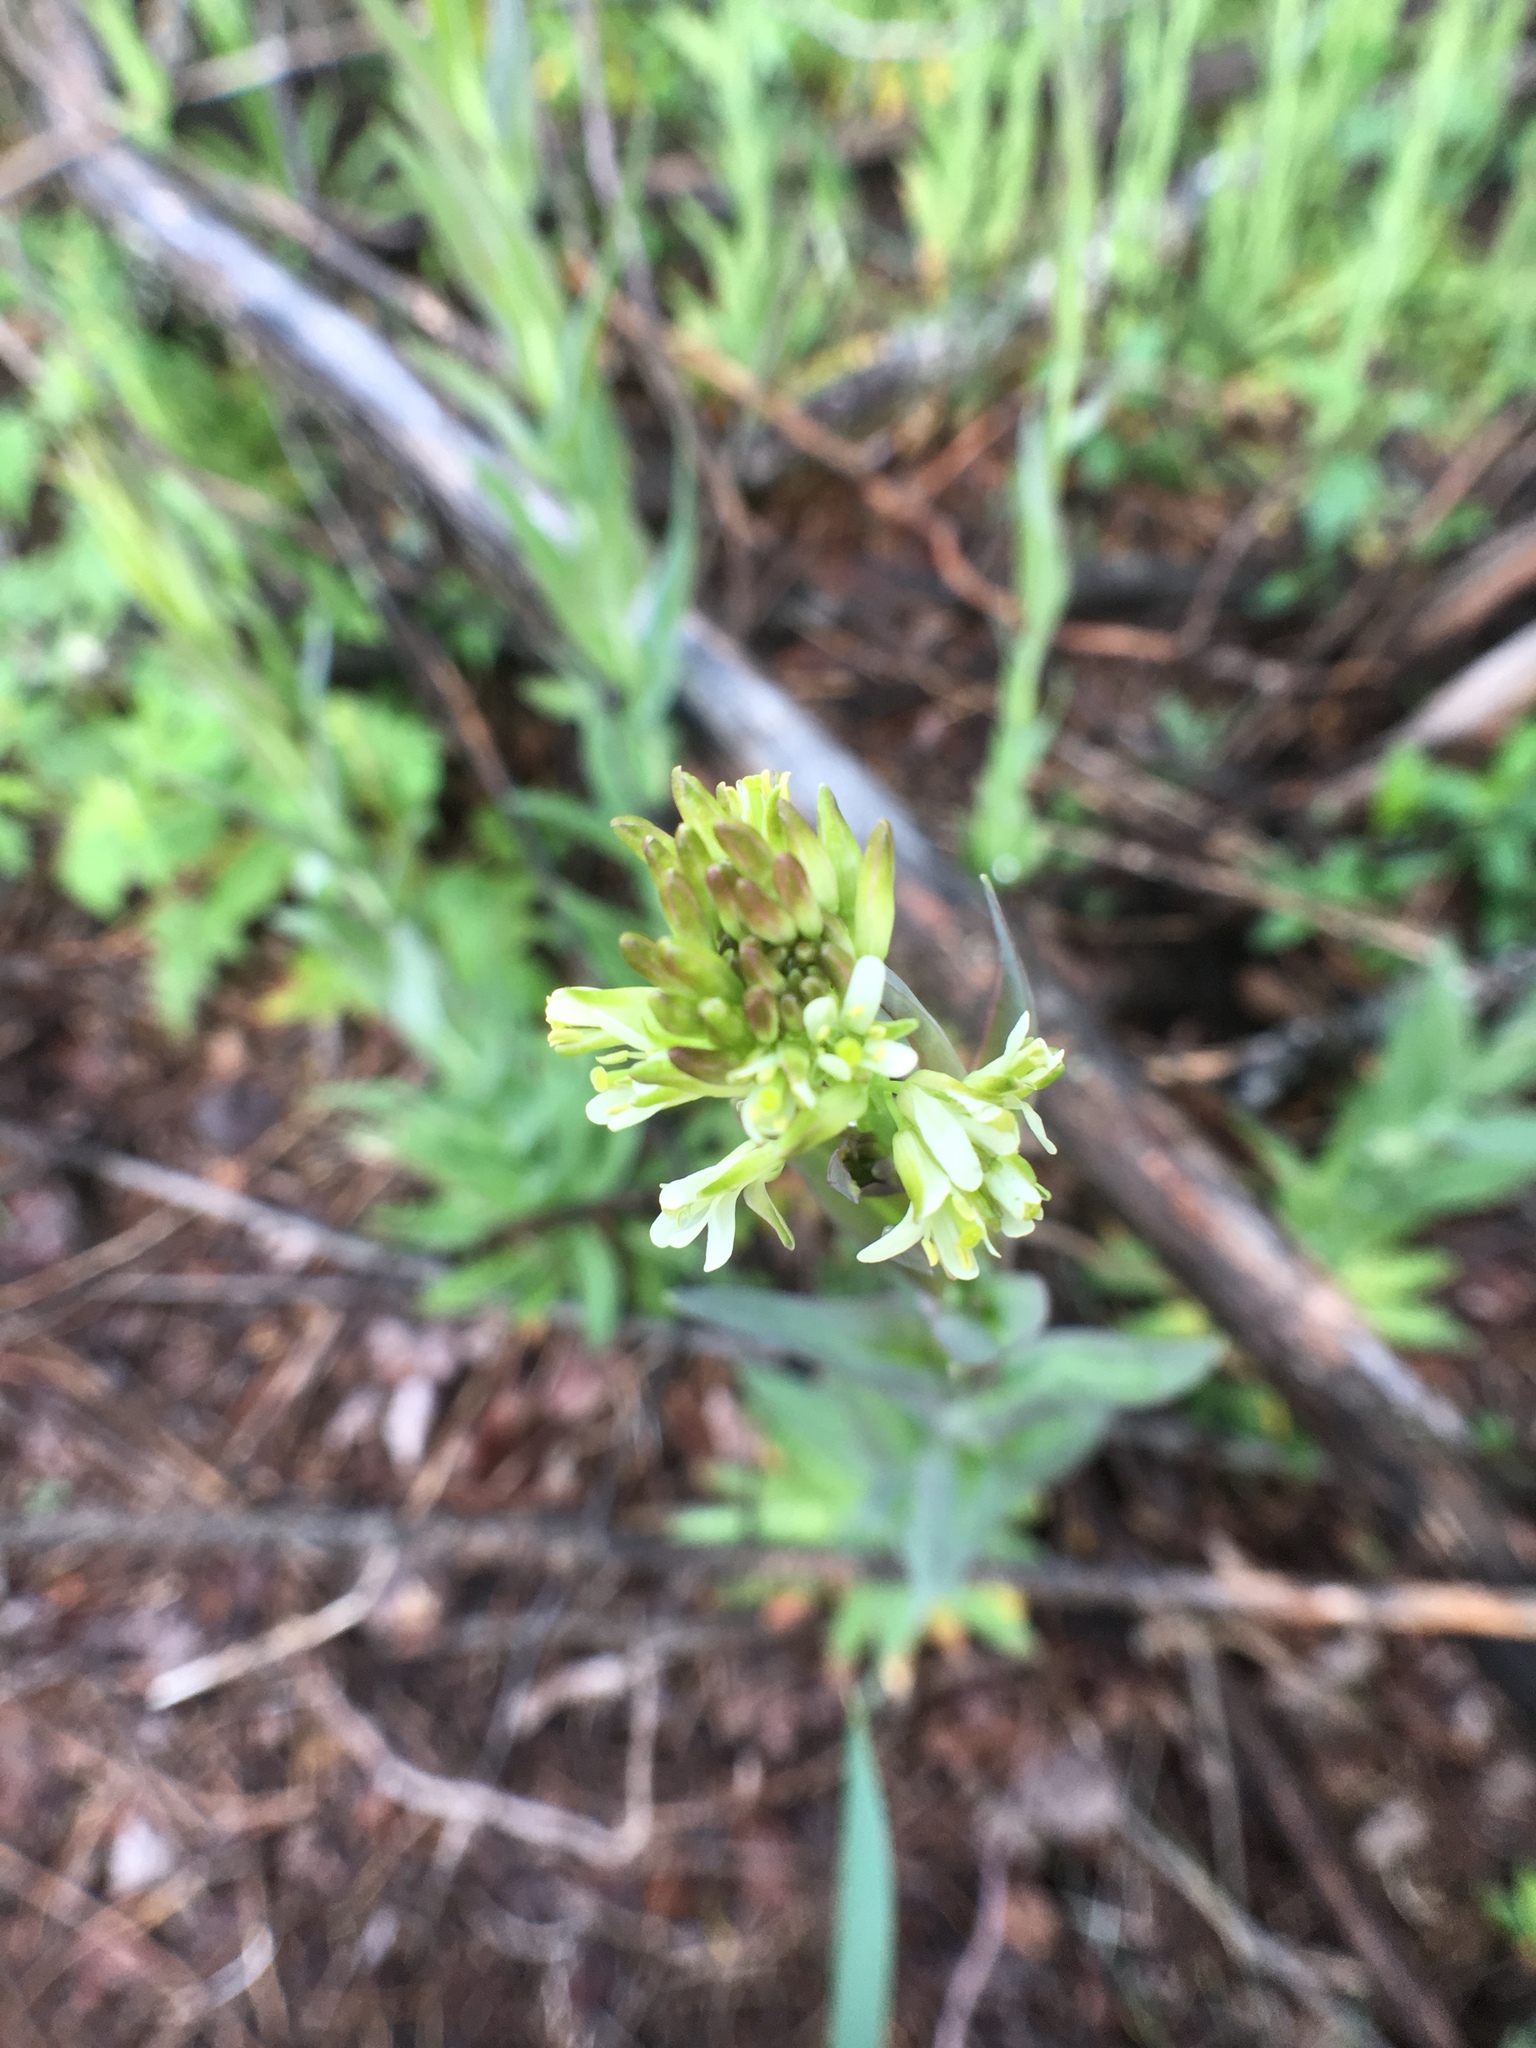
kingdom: Plantae
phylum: Tracheophyta
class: Magnoliopsida
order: Brassicales
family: Brassicaceae
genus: Turritis
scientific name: Turritis glabra
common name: Tower rockcress
